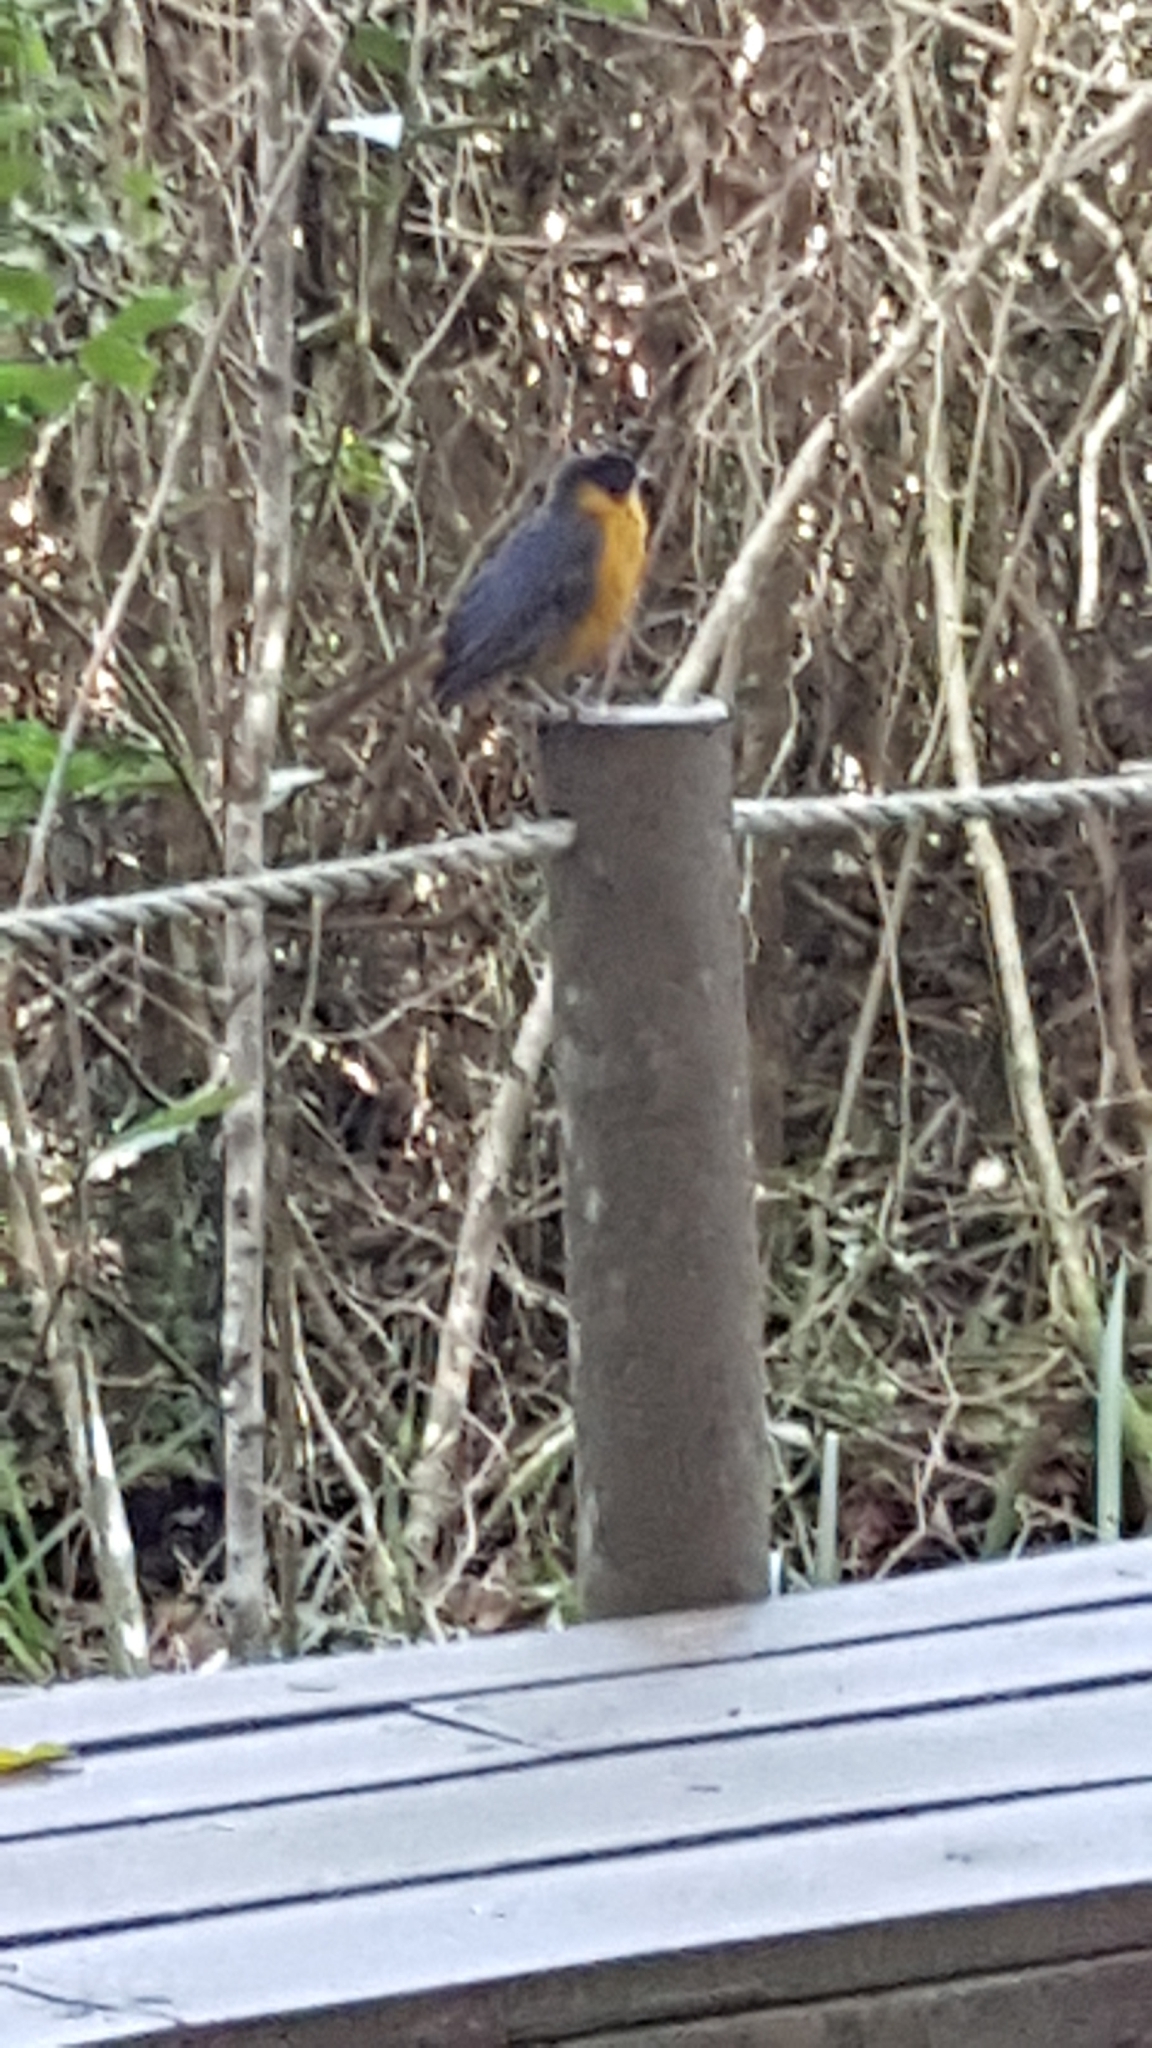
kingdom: Animalia
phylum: Chordata
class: Aves
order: Passeriformes
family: Muscicapidae
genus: Cossypha
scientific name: Cossypha dichroa
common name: Chorister robin-chat
